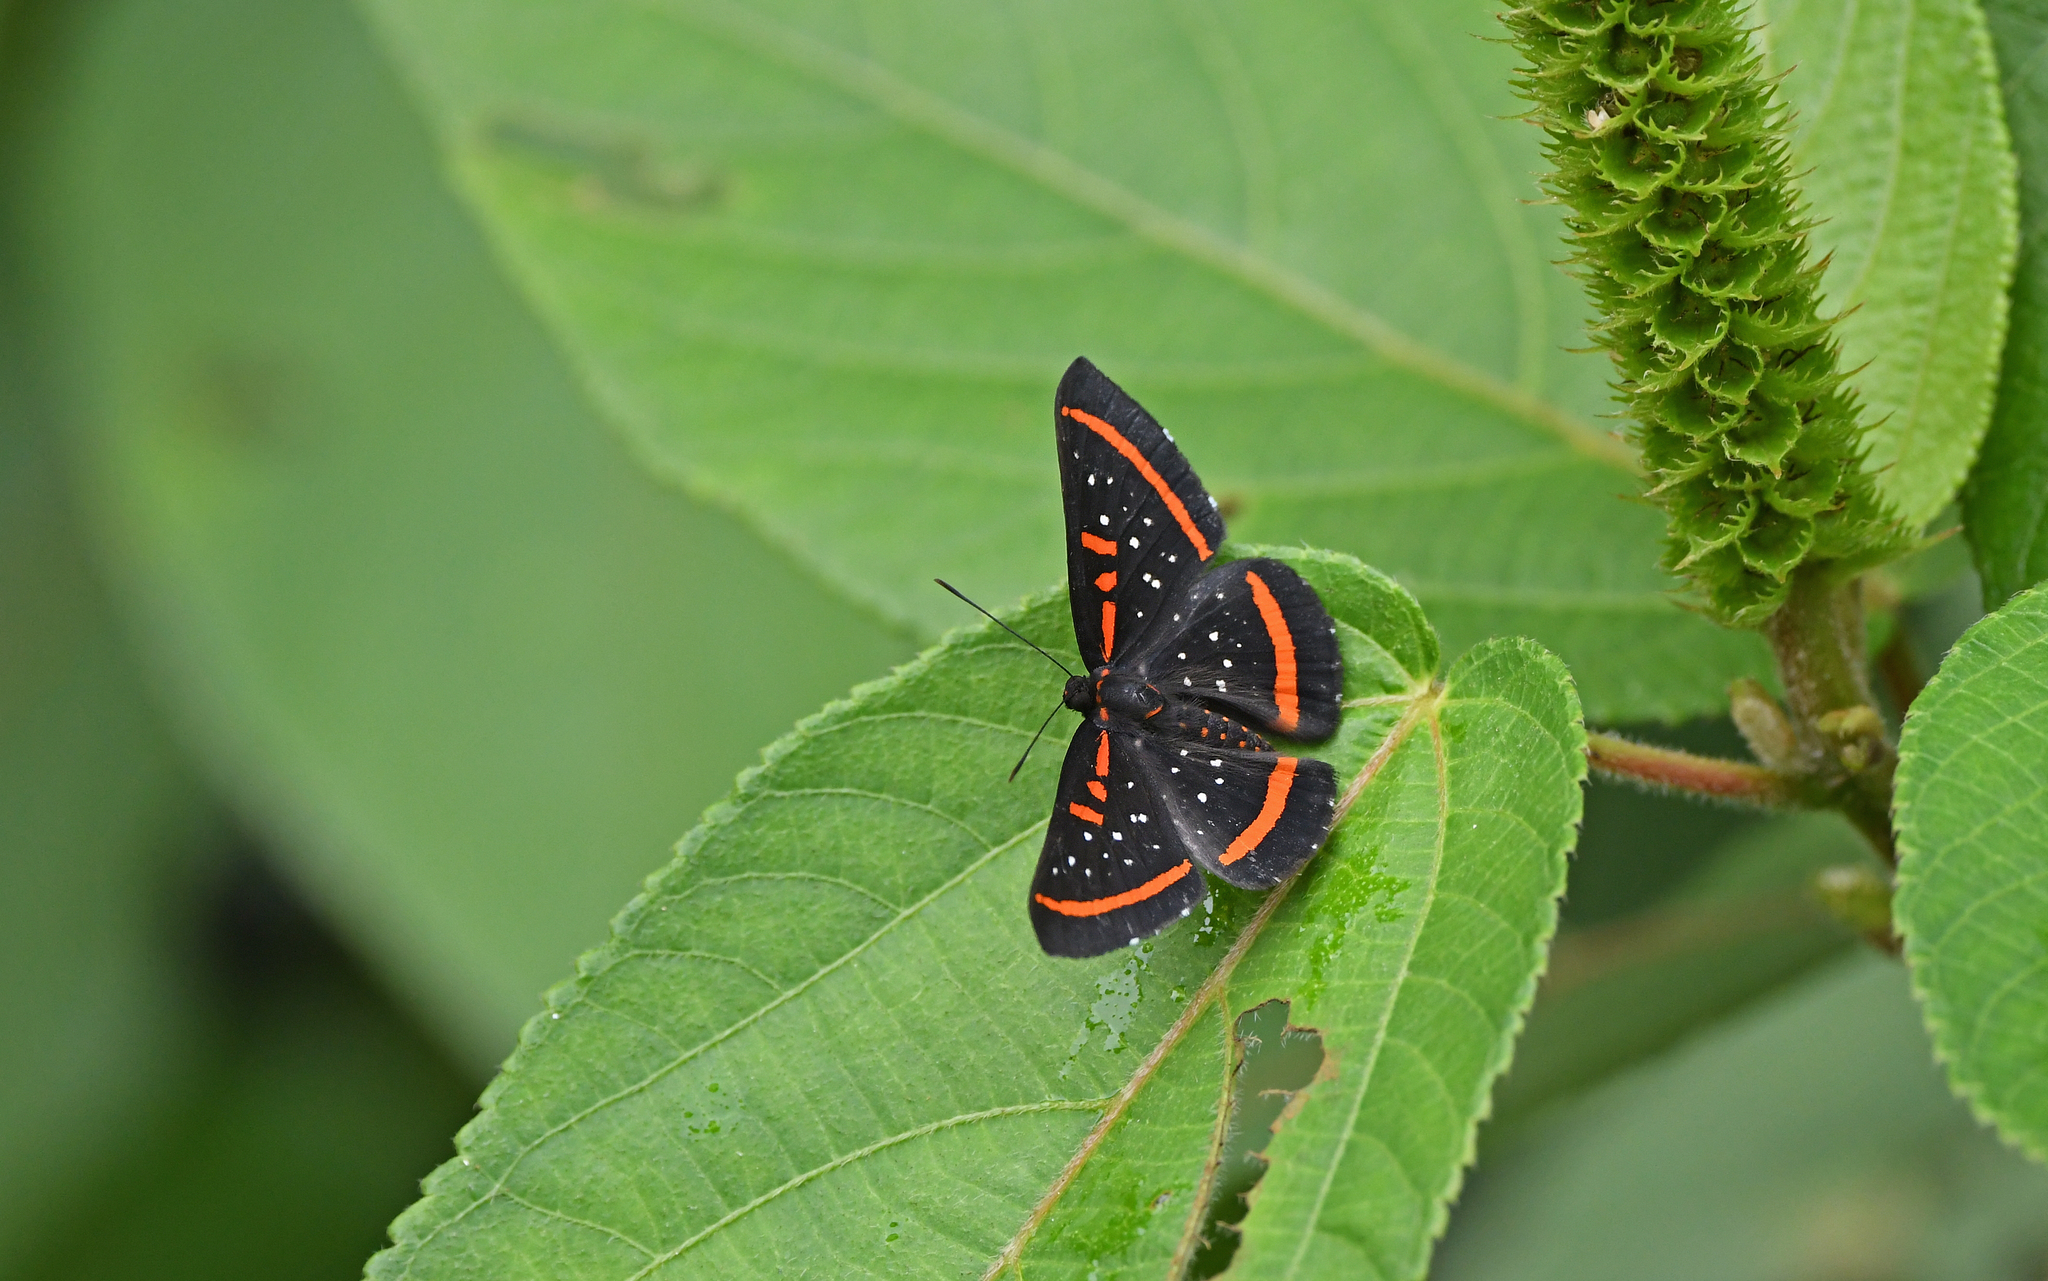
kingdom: Animalia
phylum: Arthropoda
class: Insecta
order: Lepidoptera
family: Riodinidae
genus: Amarynthis
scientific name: Amarynthis meneria
